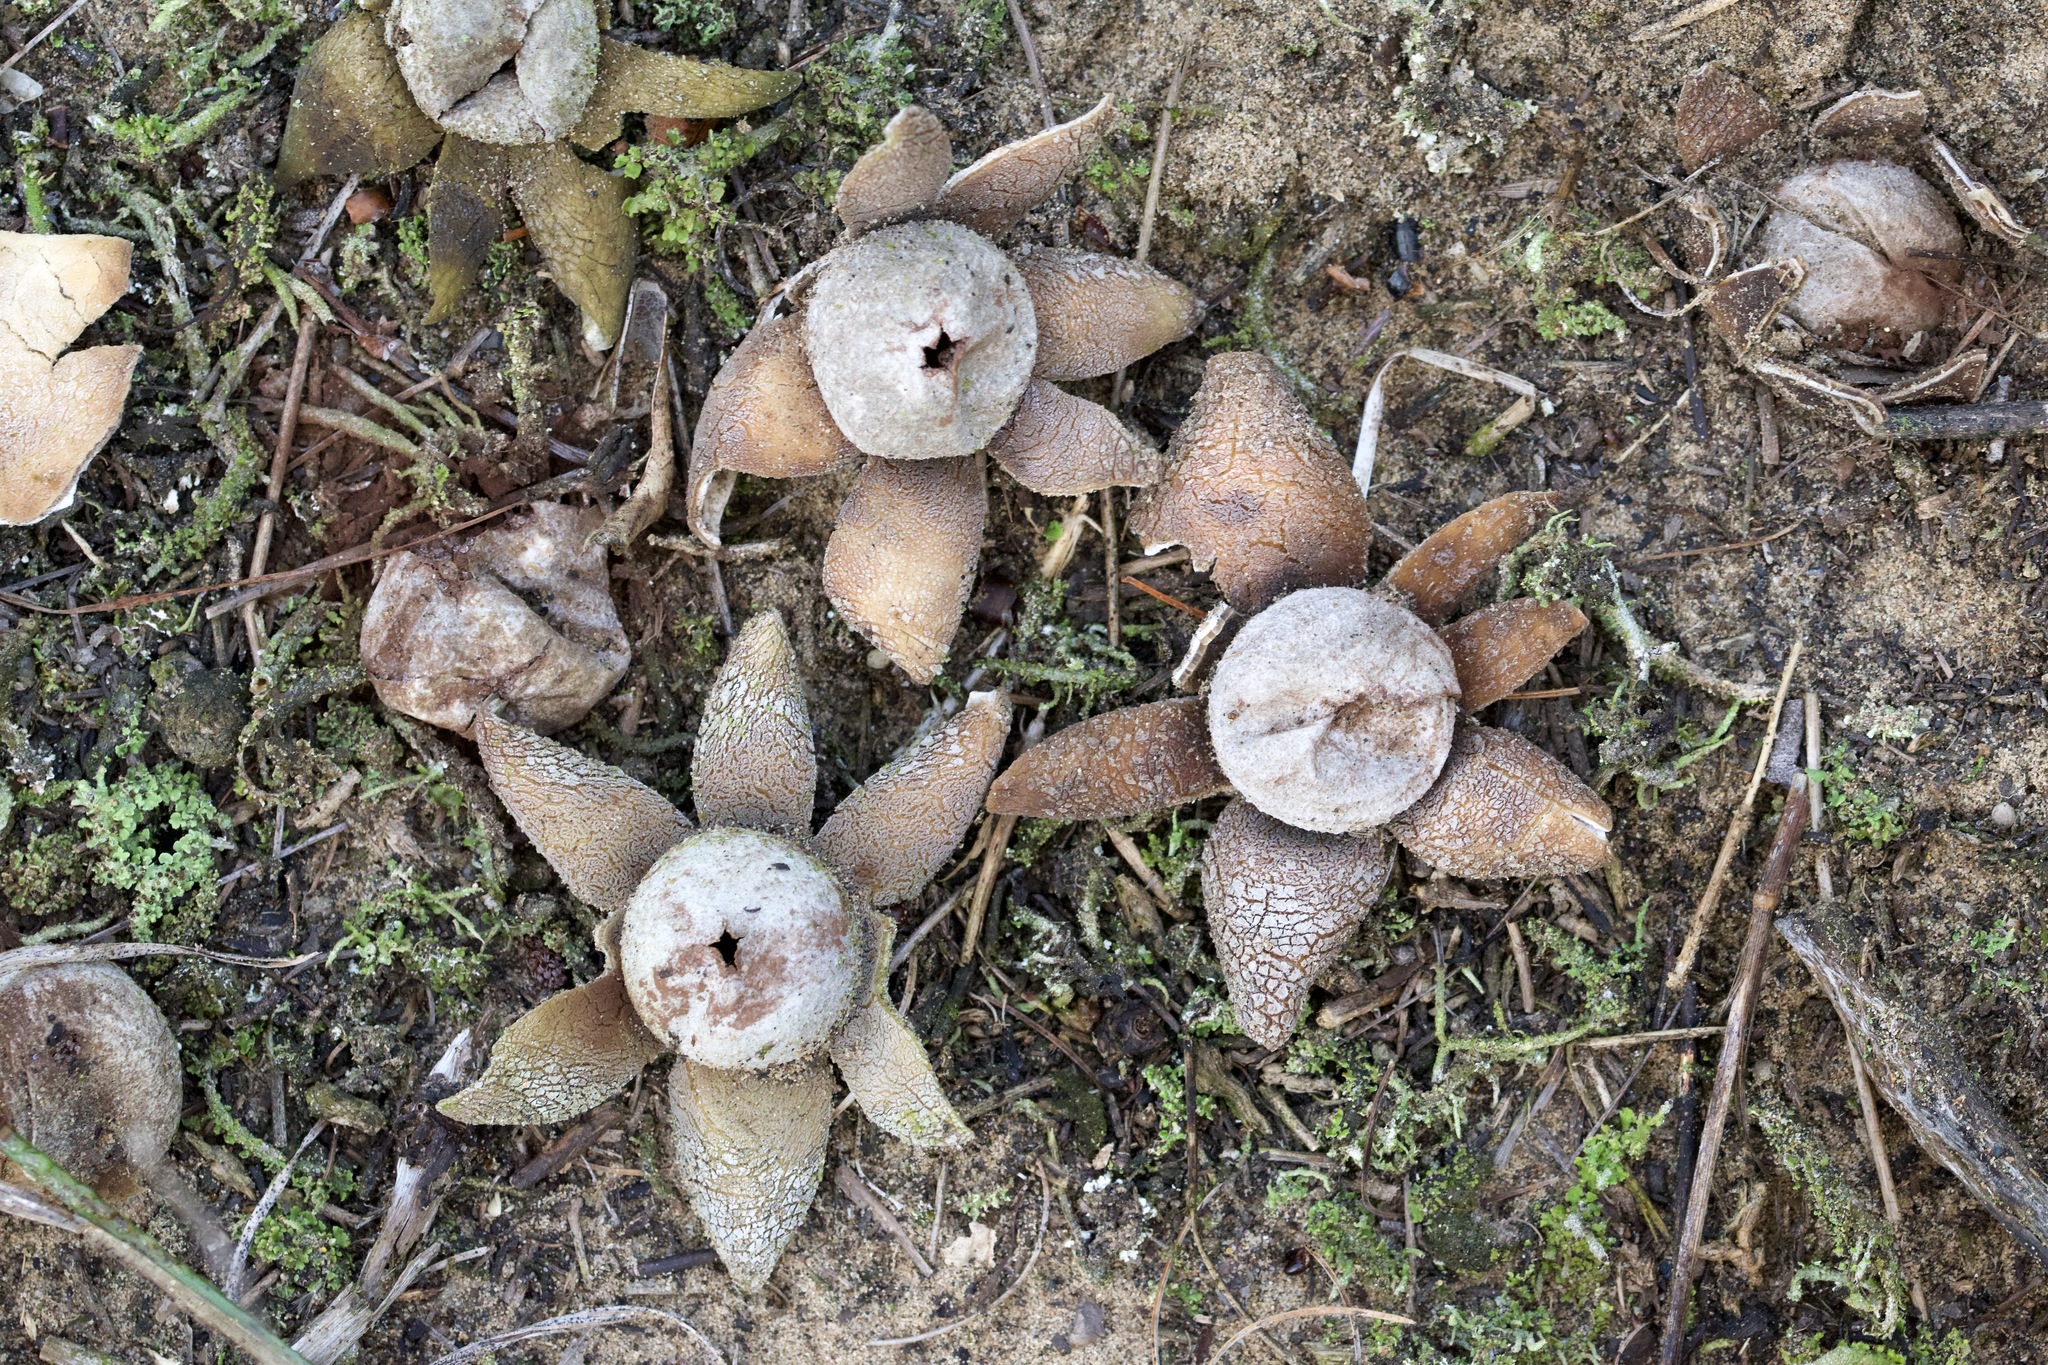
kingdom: Fungi
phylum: Basidiomycota
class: Agaricomycetes
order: Boletales
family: Diplocystidiaceae
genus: Astraeus
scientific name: Astraeus smithii
